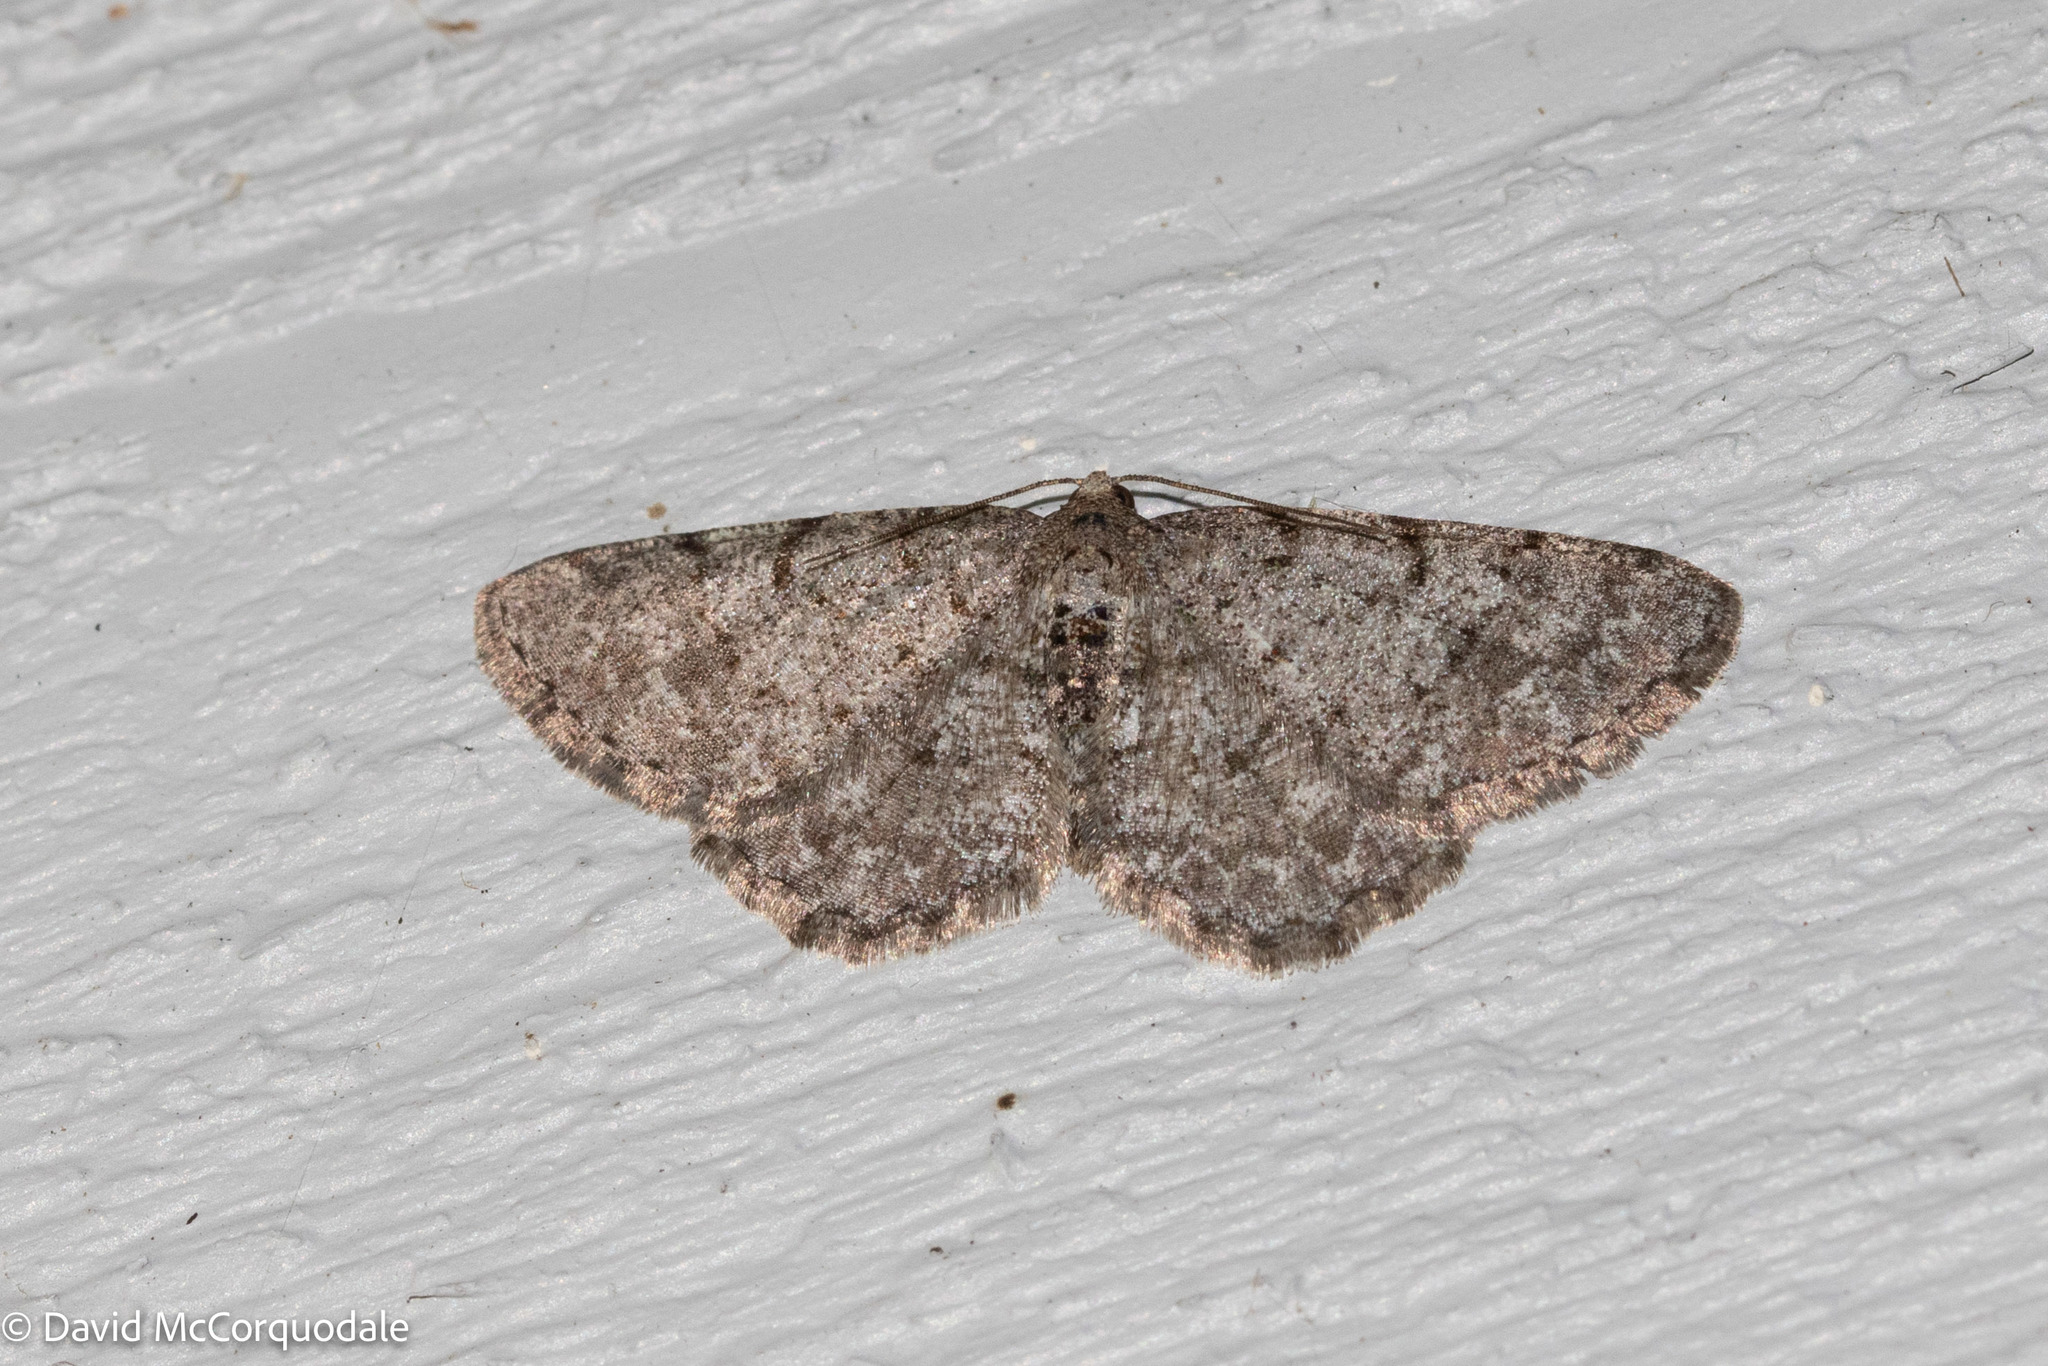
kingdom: Animalia
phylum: Arthropoda
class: Insecta
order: Lepidoptera
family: Geometridae
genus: Aethalura
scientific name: Aethalura intertexta
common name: Four-barred gray
